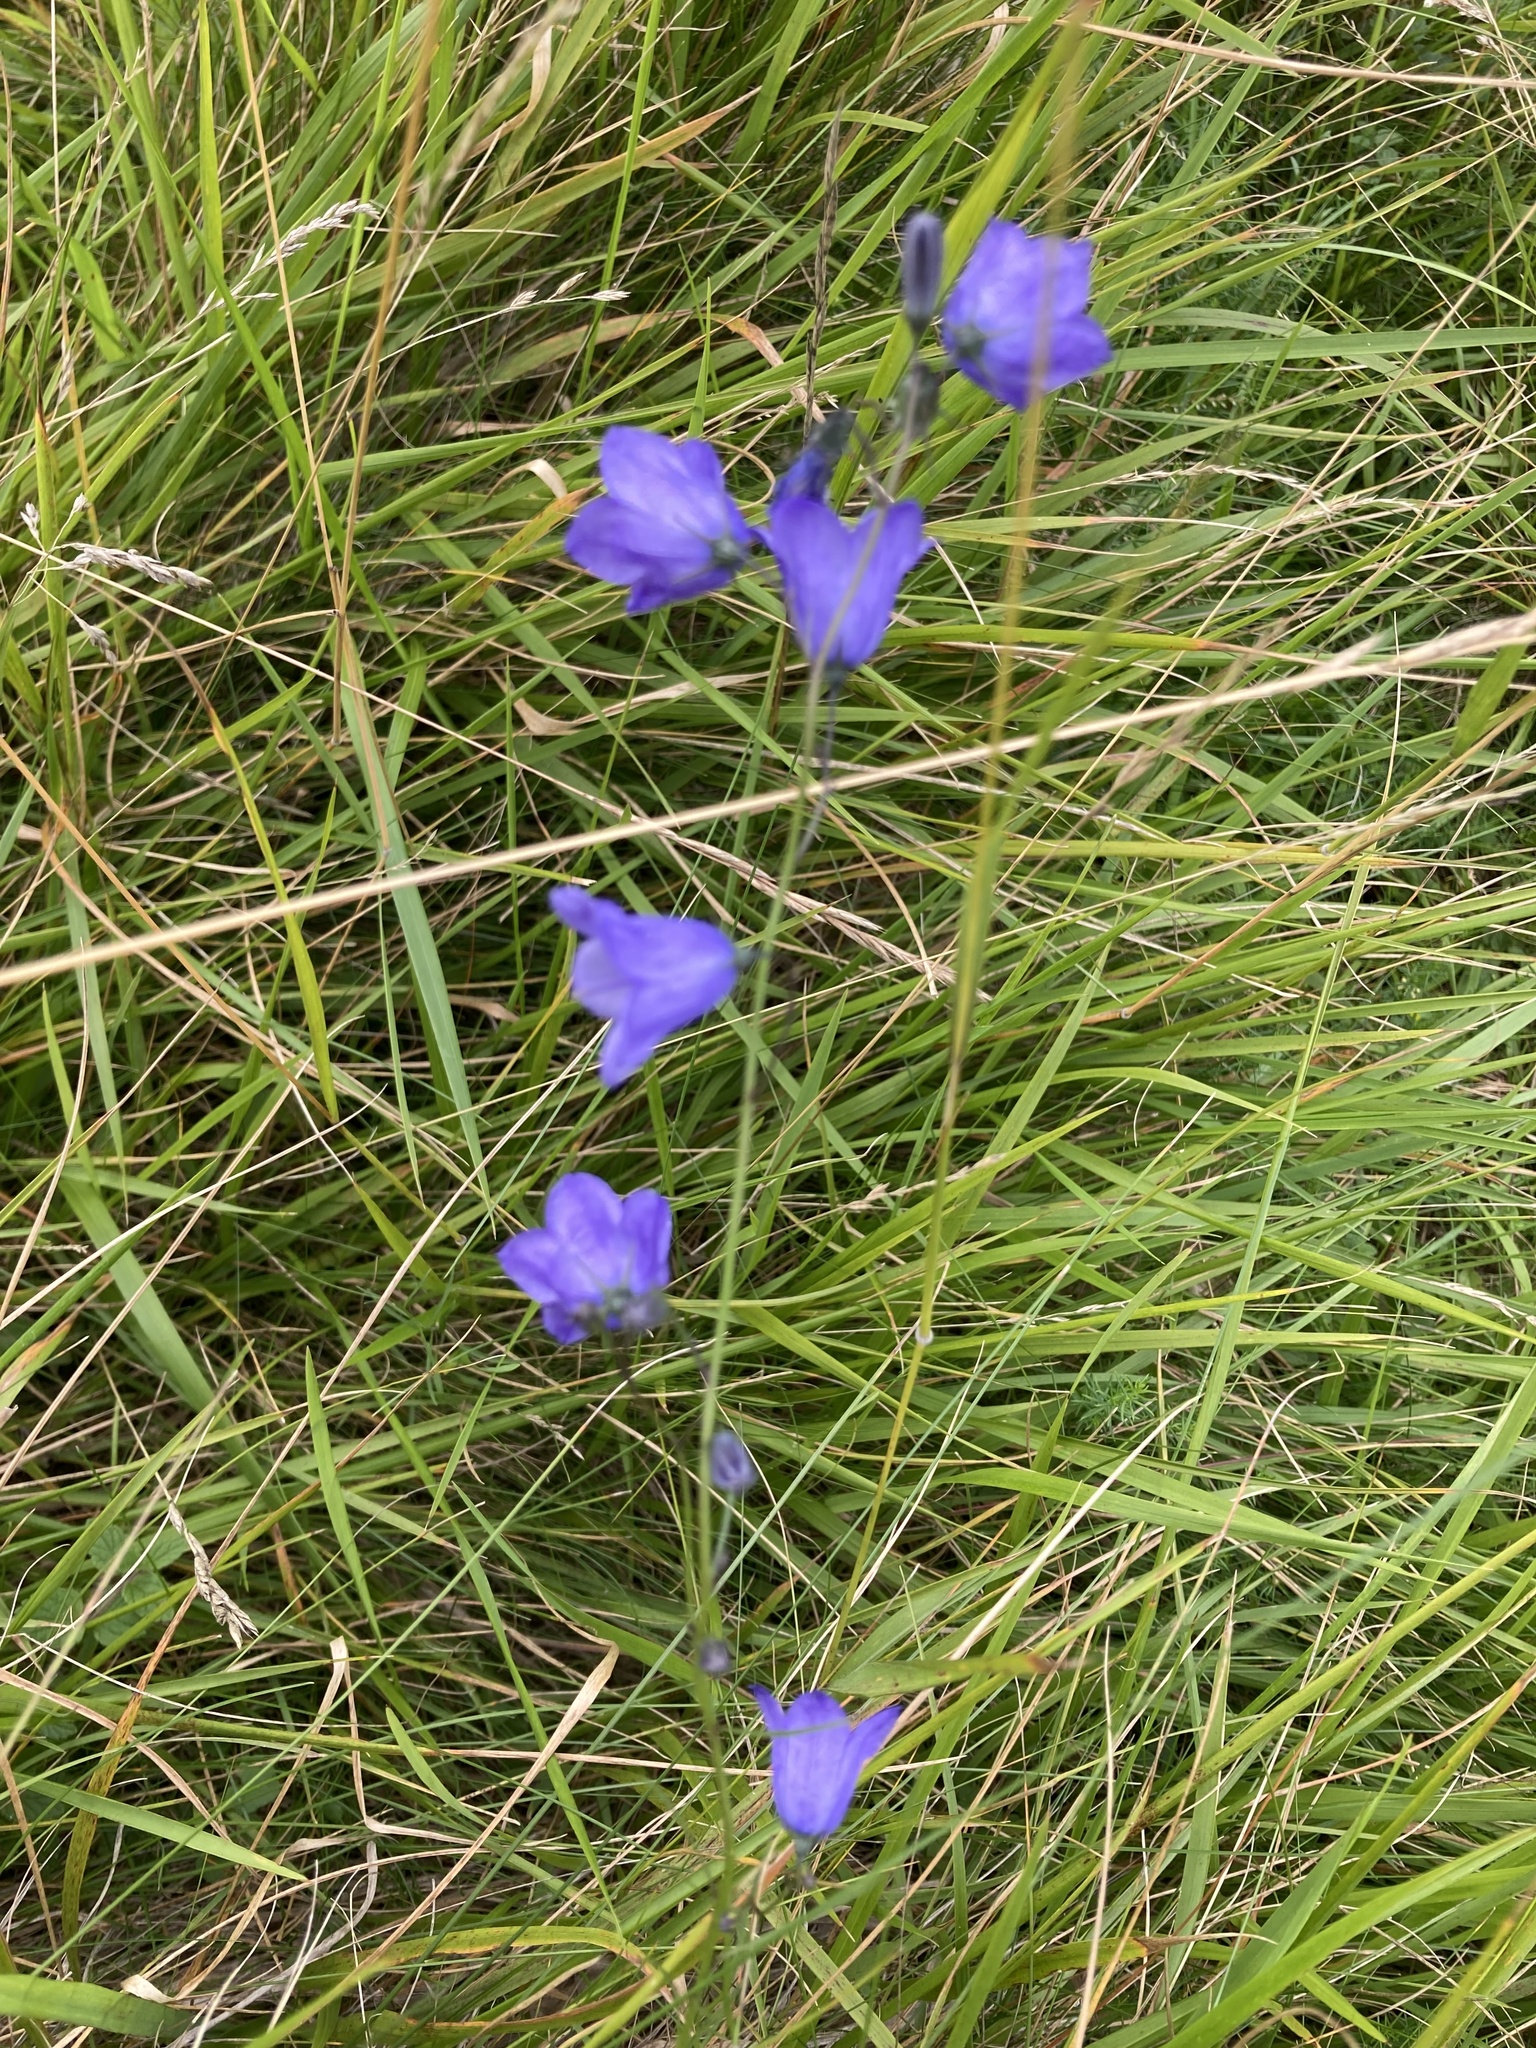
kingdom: Plantae
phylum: Tracheophyta
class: Magnoliopsida
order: Asterales
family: Campanulaceae
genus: Campanula
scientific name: Campanula rotundifolia
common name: Harebell
